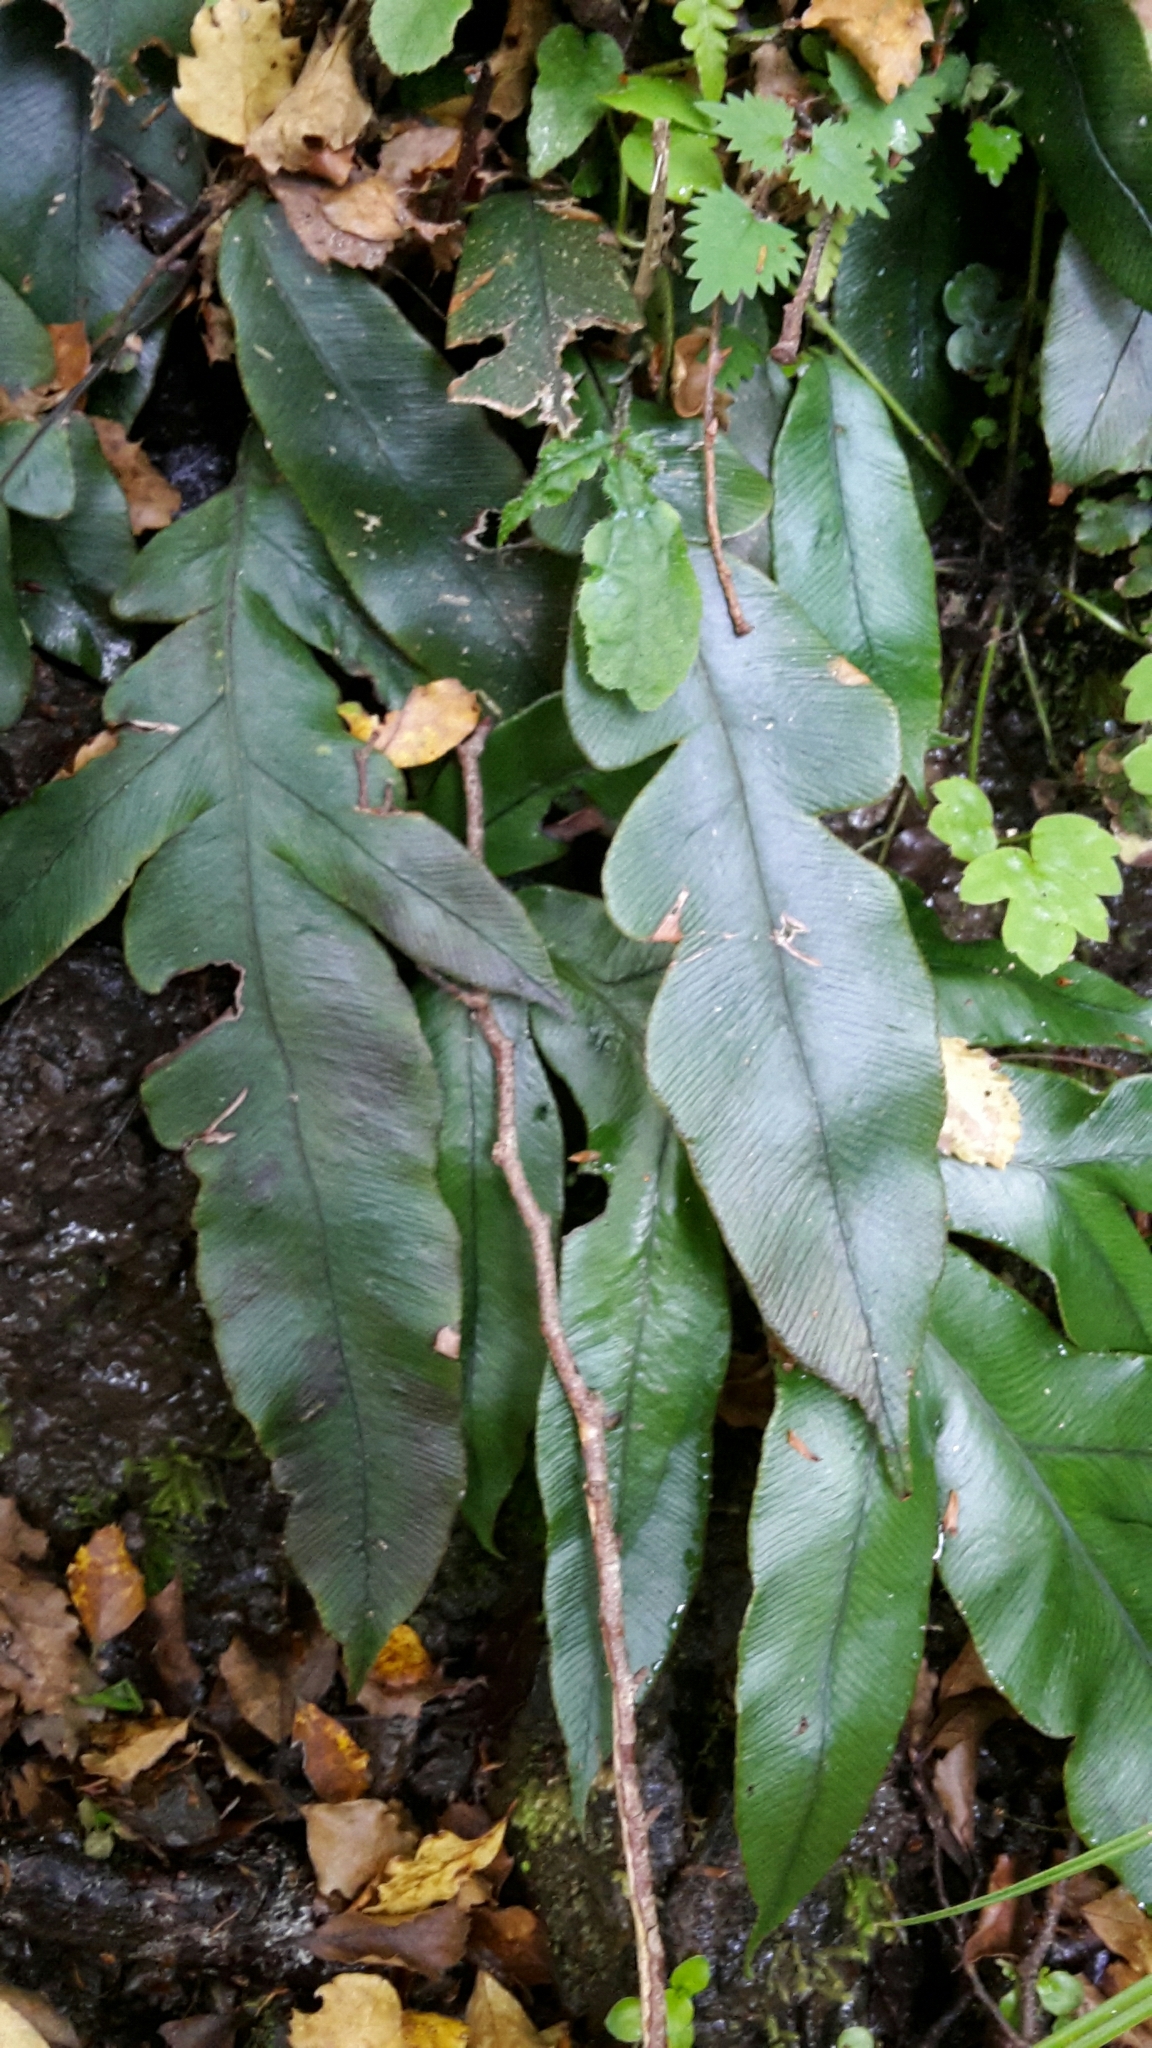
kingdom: Plantae
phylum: Tracheophyta
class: Polypodiopsida
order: Polypodiales
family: Blechnaceae
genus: Austroblechnum
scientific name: Austroblechnum colensoi
